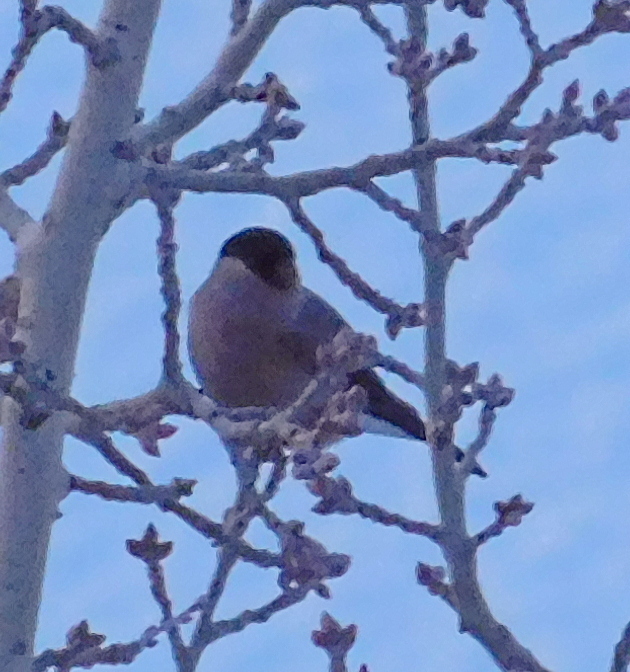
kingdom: Animalia
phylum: Chordata
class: Aves
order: Passeriformes
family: Fringillidae
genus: Pyrrhula
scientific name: Pyrrhula pyrrhula
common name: Eurasian bullfinch
